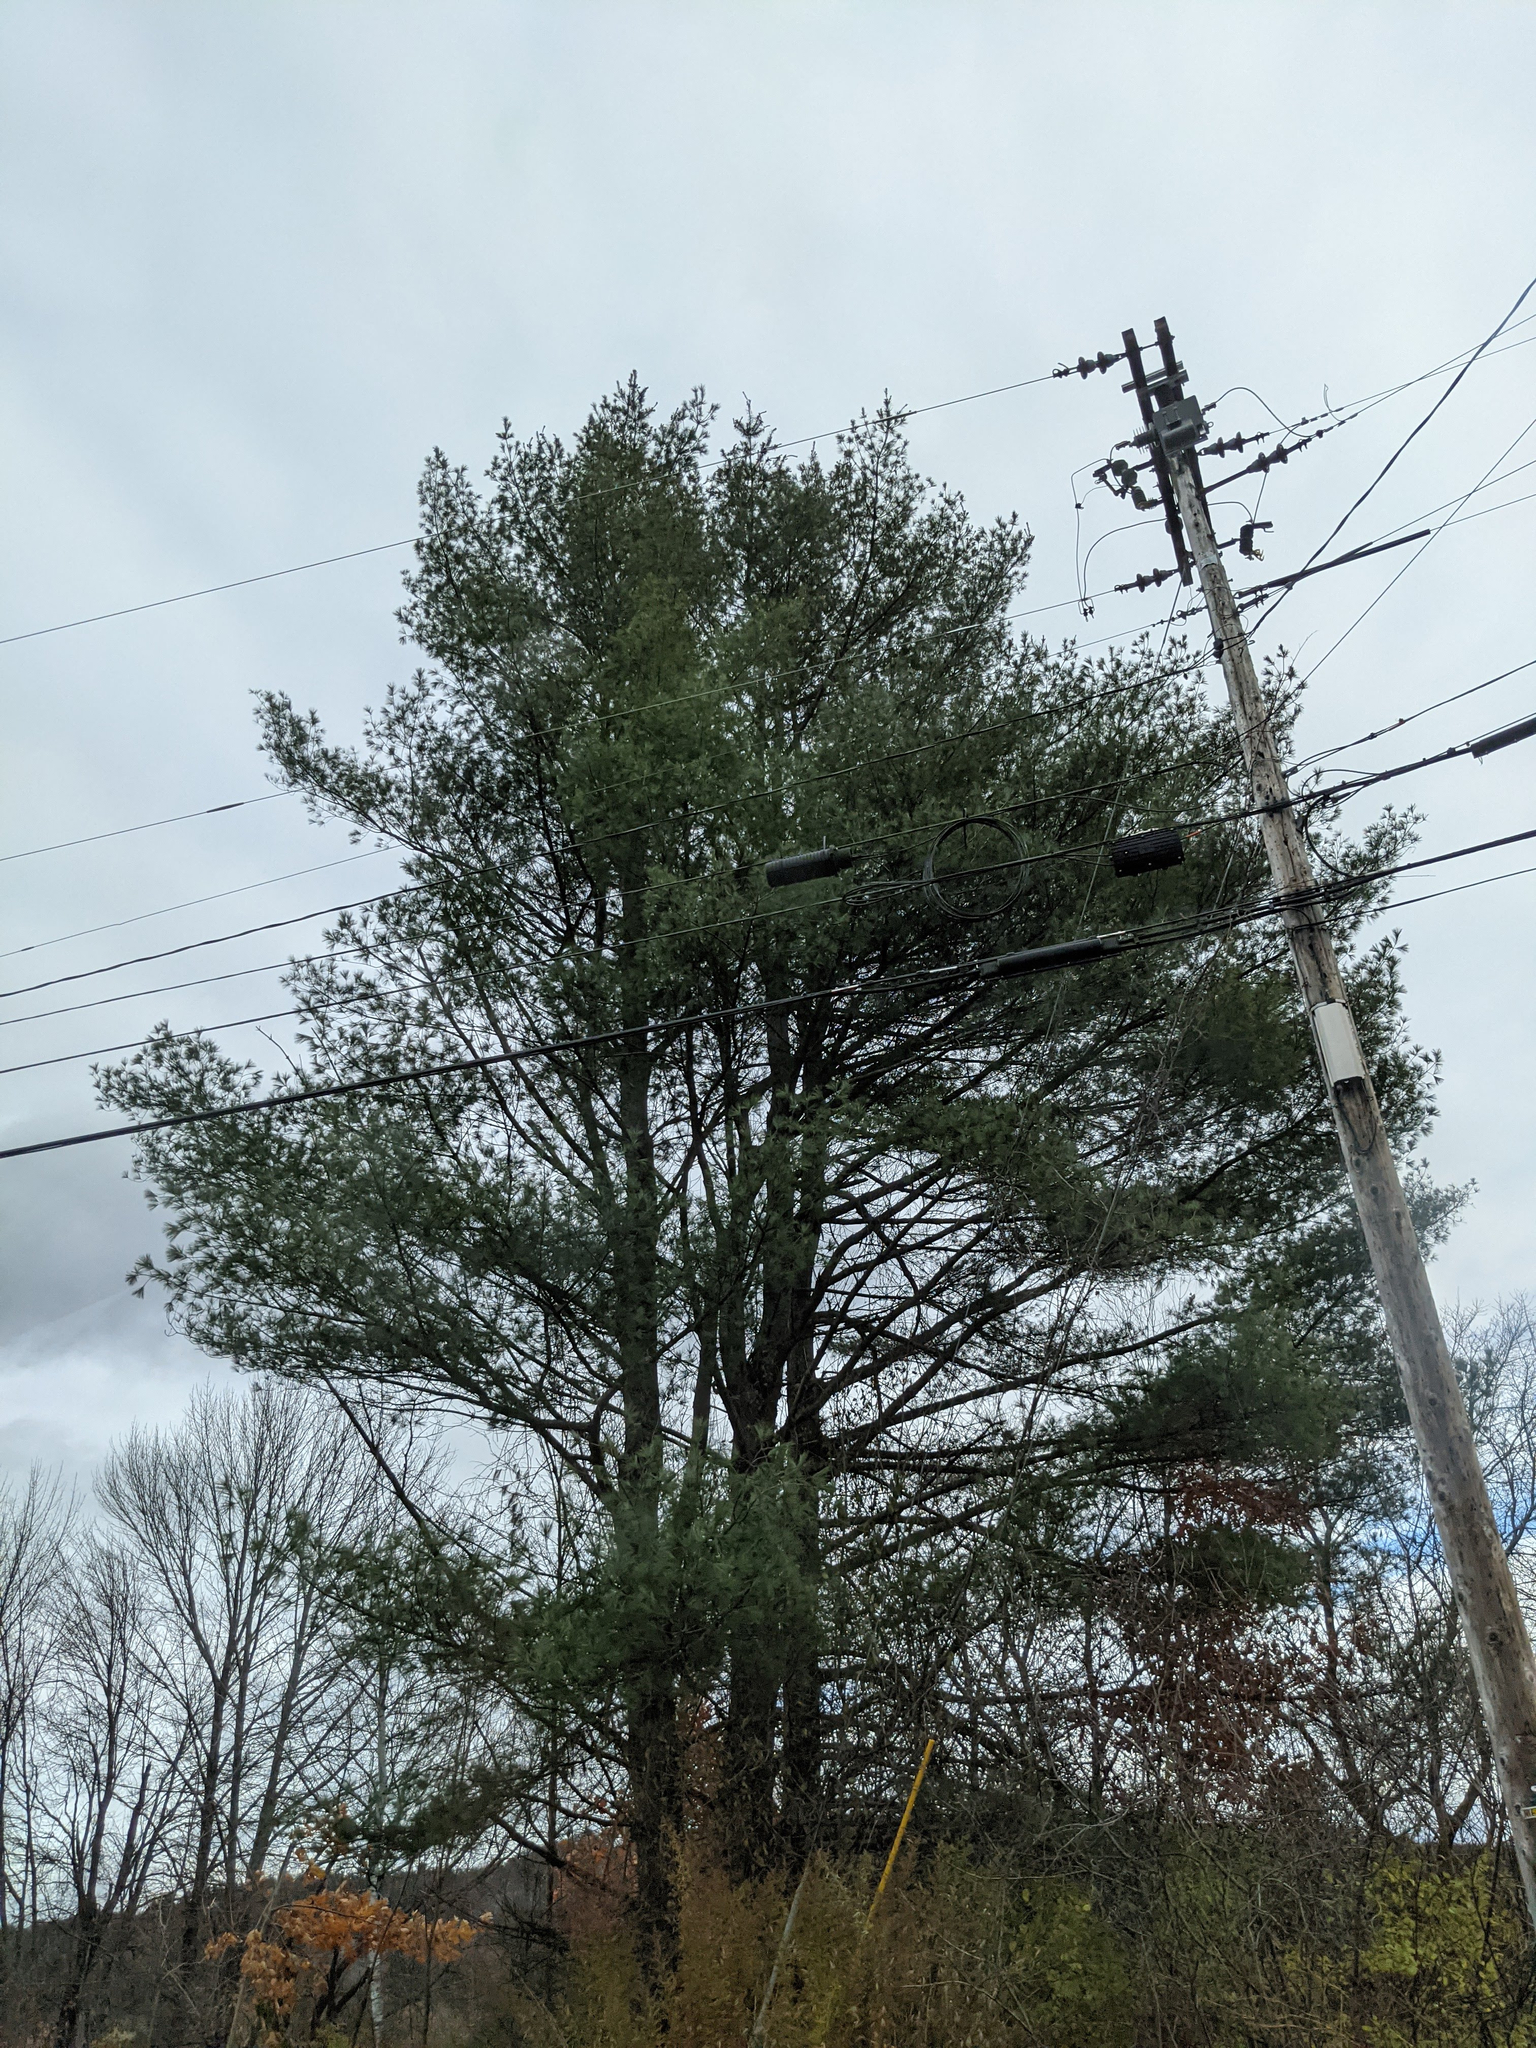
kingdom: Plantae
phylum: Tracheophyta
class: Pinopsida
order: Pinales
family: Pinaceae
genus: Pinus
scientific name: Pinus strobus
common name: Weymouth pine
